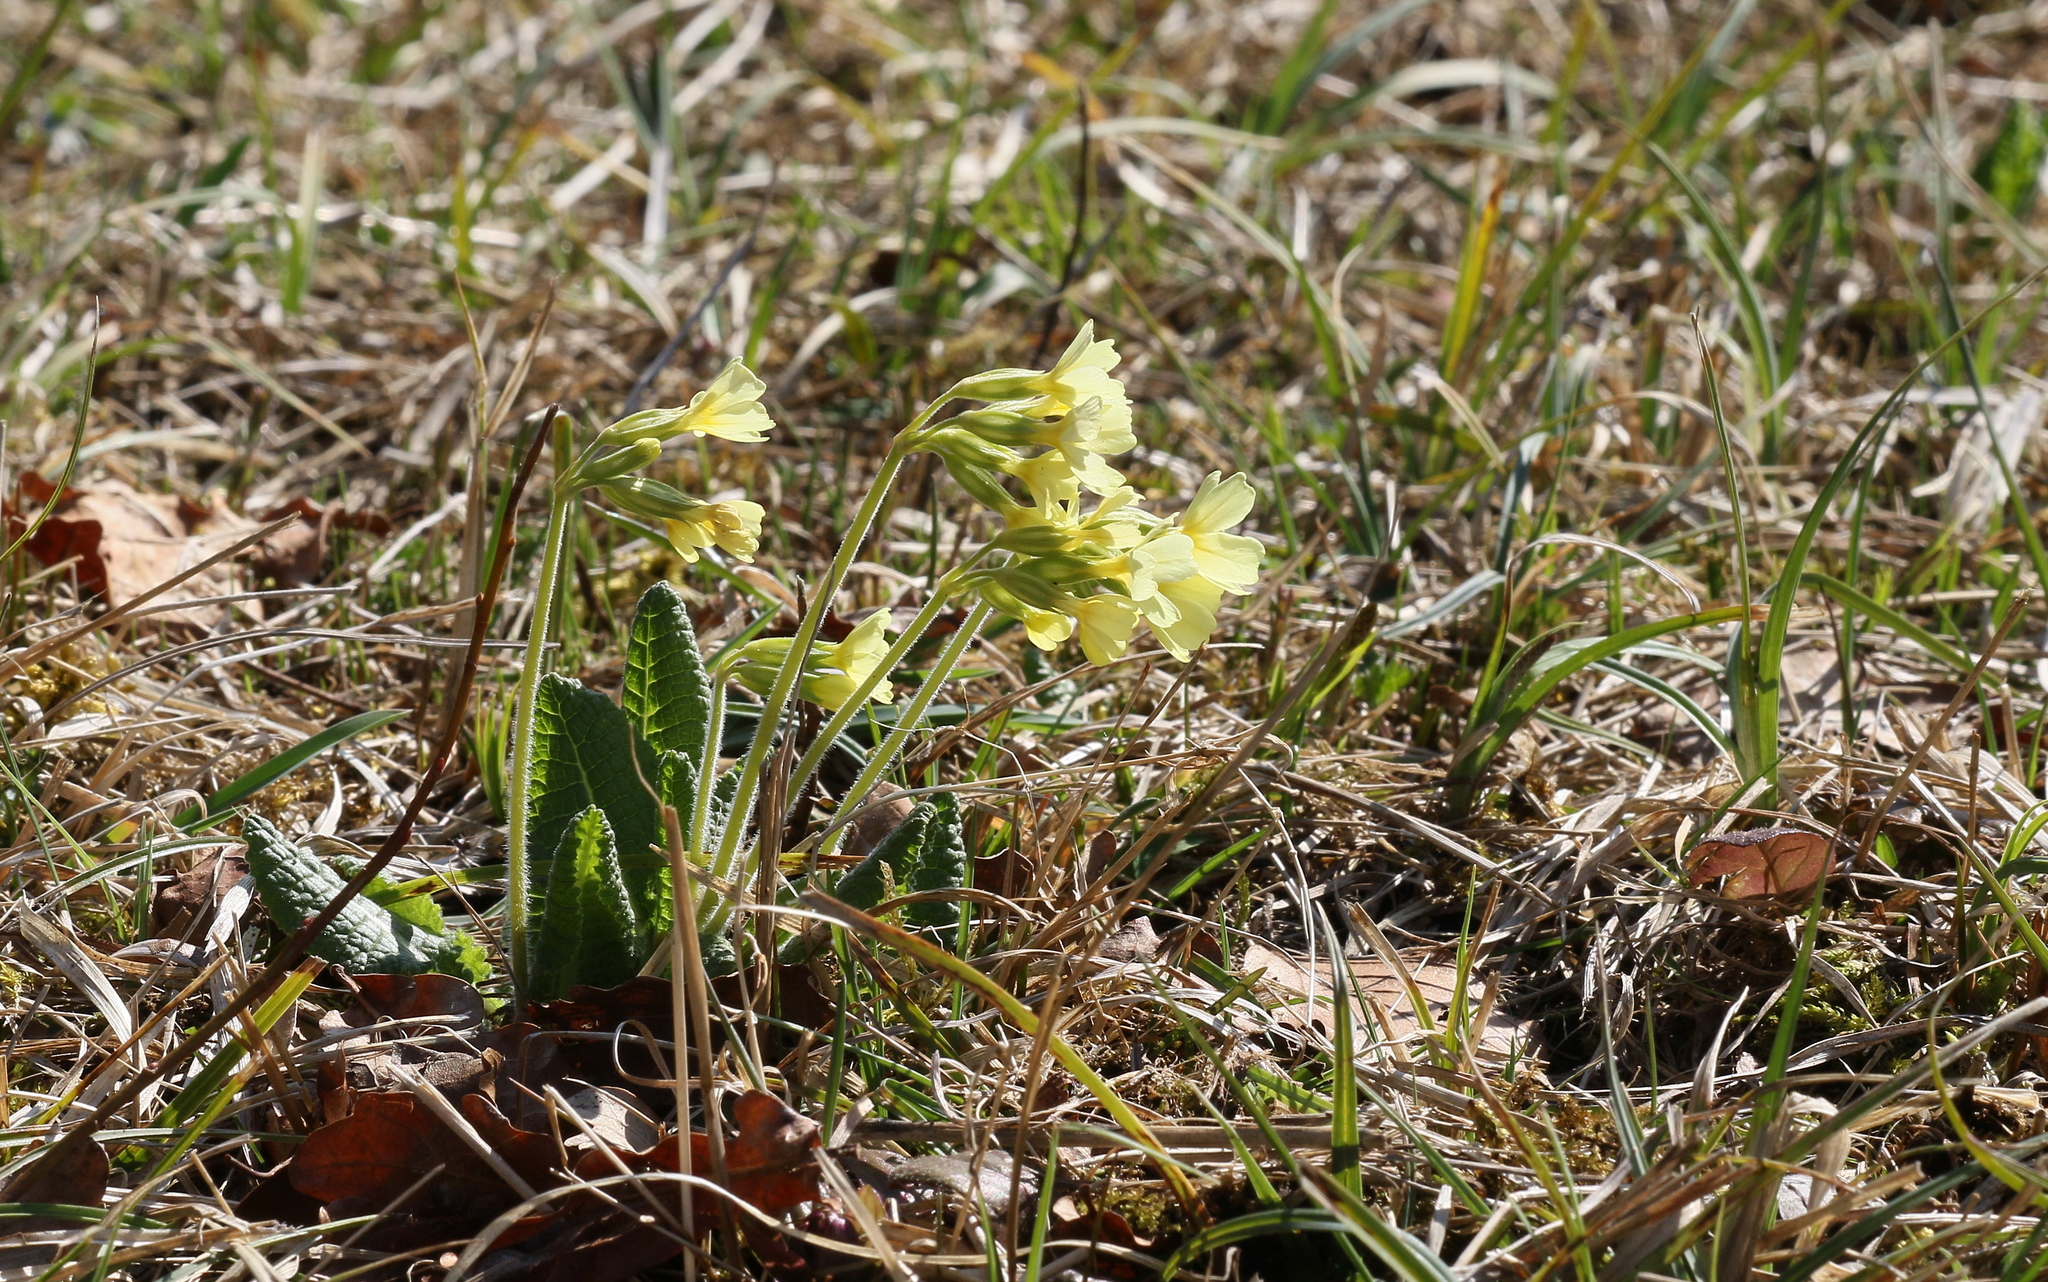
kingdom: Plantae
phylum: Tracheophyta
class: Magnoliopsida
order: Ericales
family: Primulaceae
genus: Primula
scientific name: Primula elatior
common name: Oxlip
